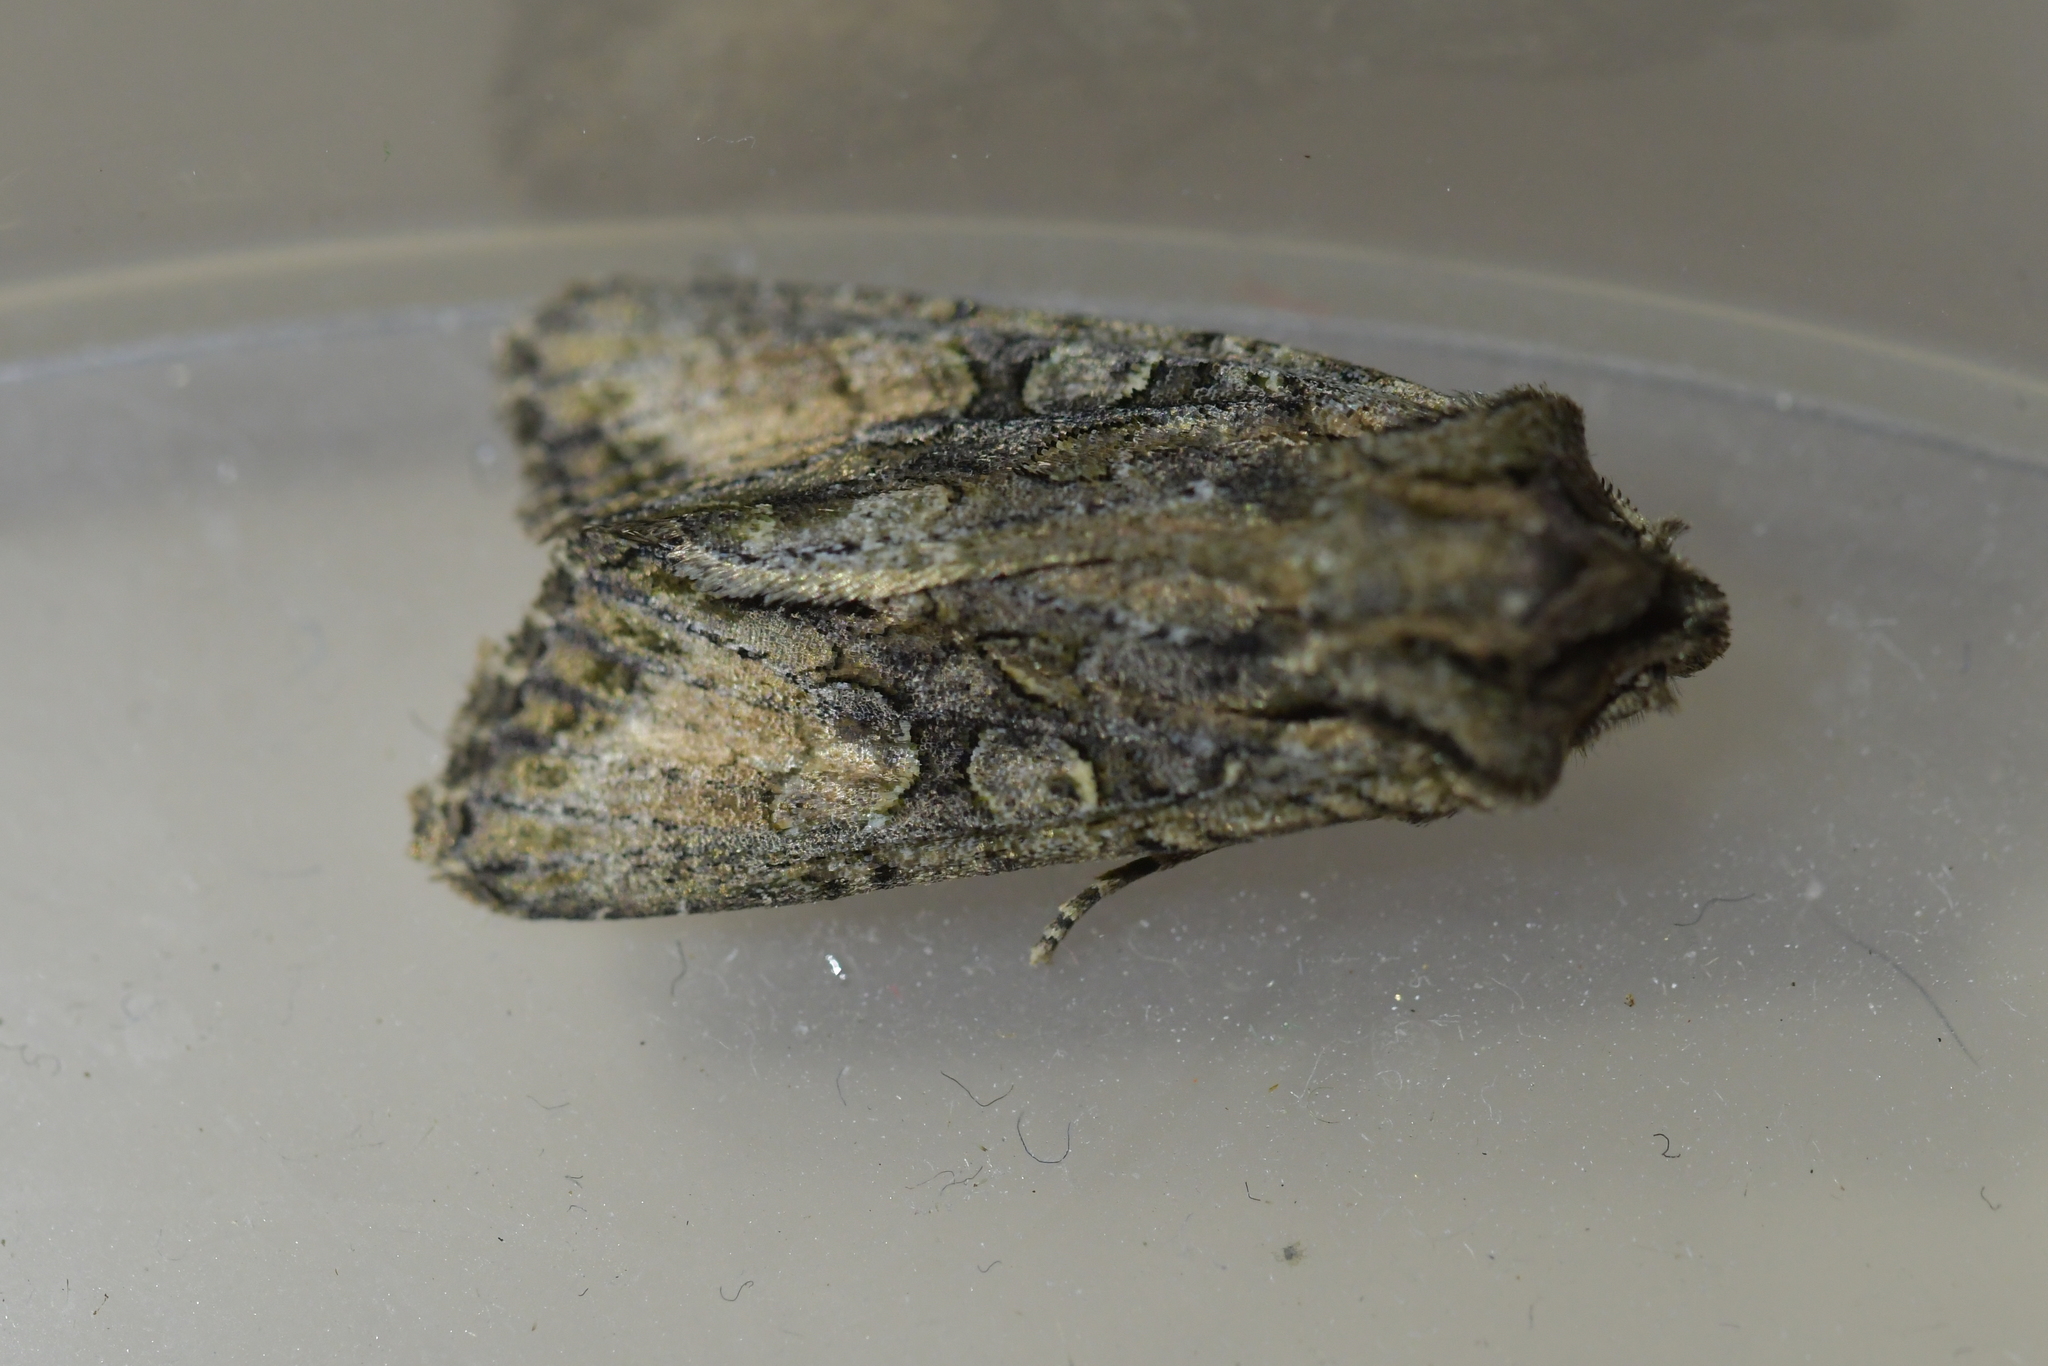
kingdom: Animalia
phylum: Arthropoda
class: Insecta
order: Lepidoptera
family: Noctuidae
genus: Ichneutica
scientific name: Ichneutica mutans
